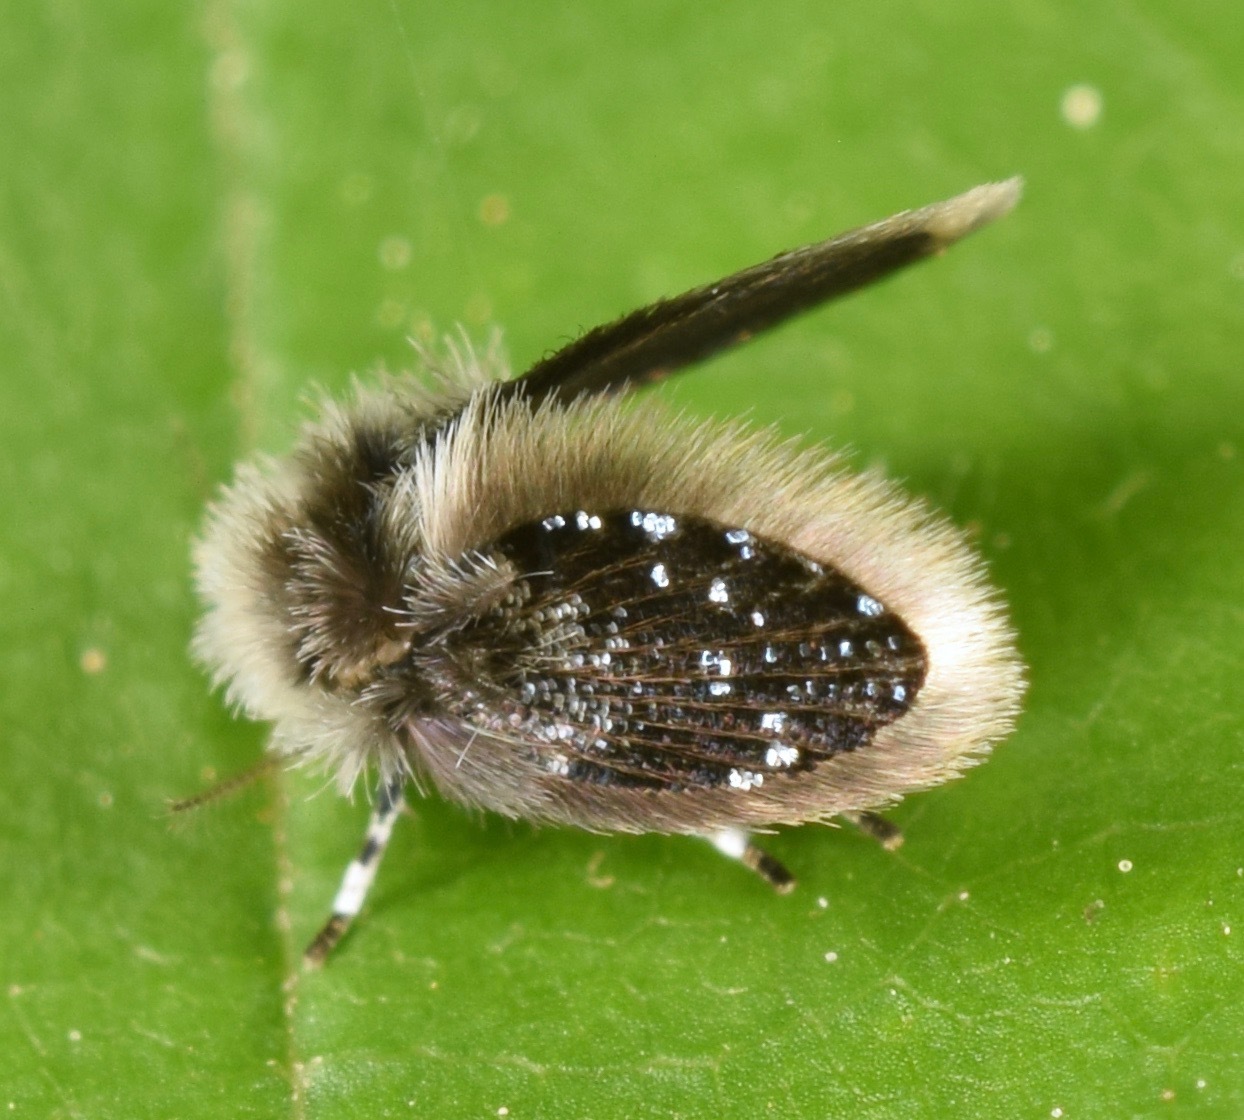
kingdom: Animalia
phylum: Arthropoda
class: Insecta
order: Diptera
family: Psychodidae
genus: Setomima
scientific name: Setomima
